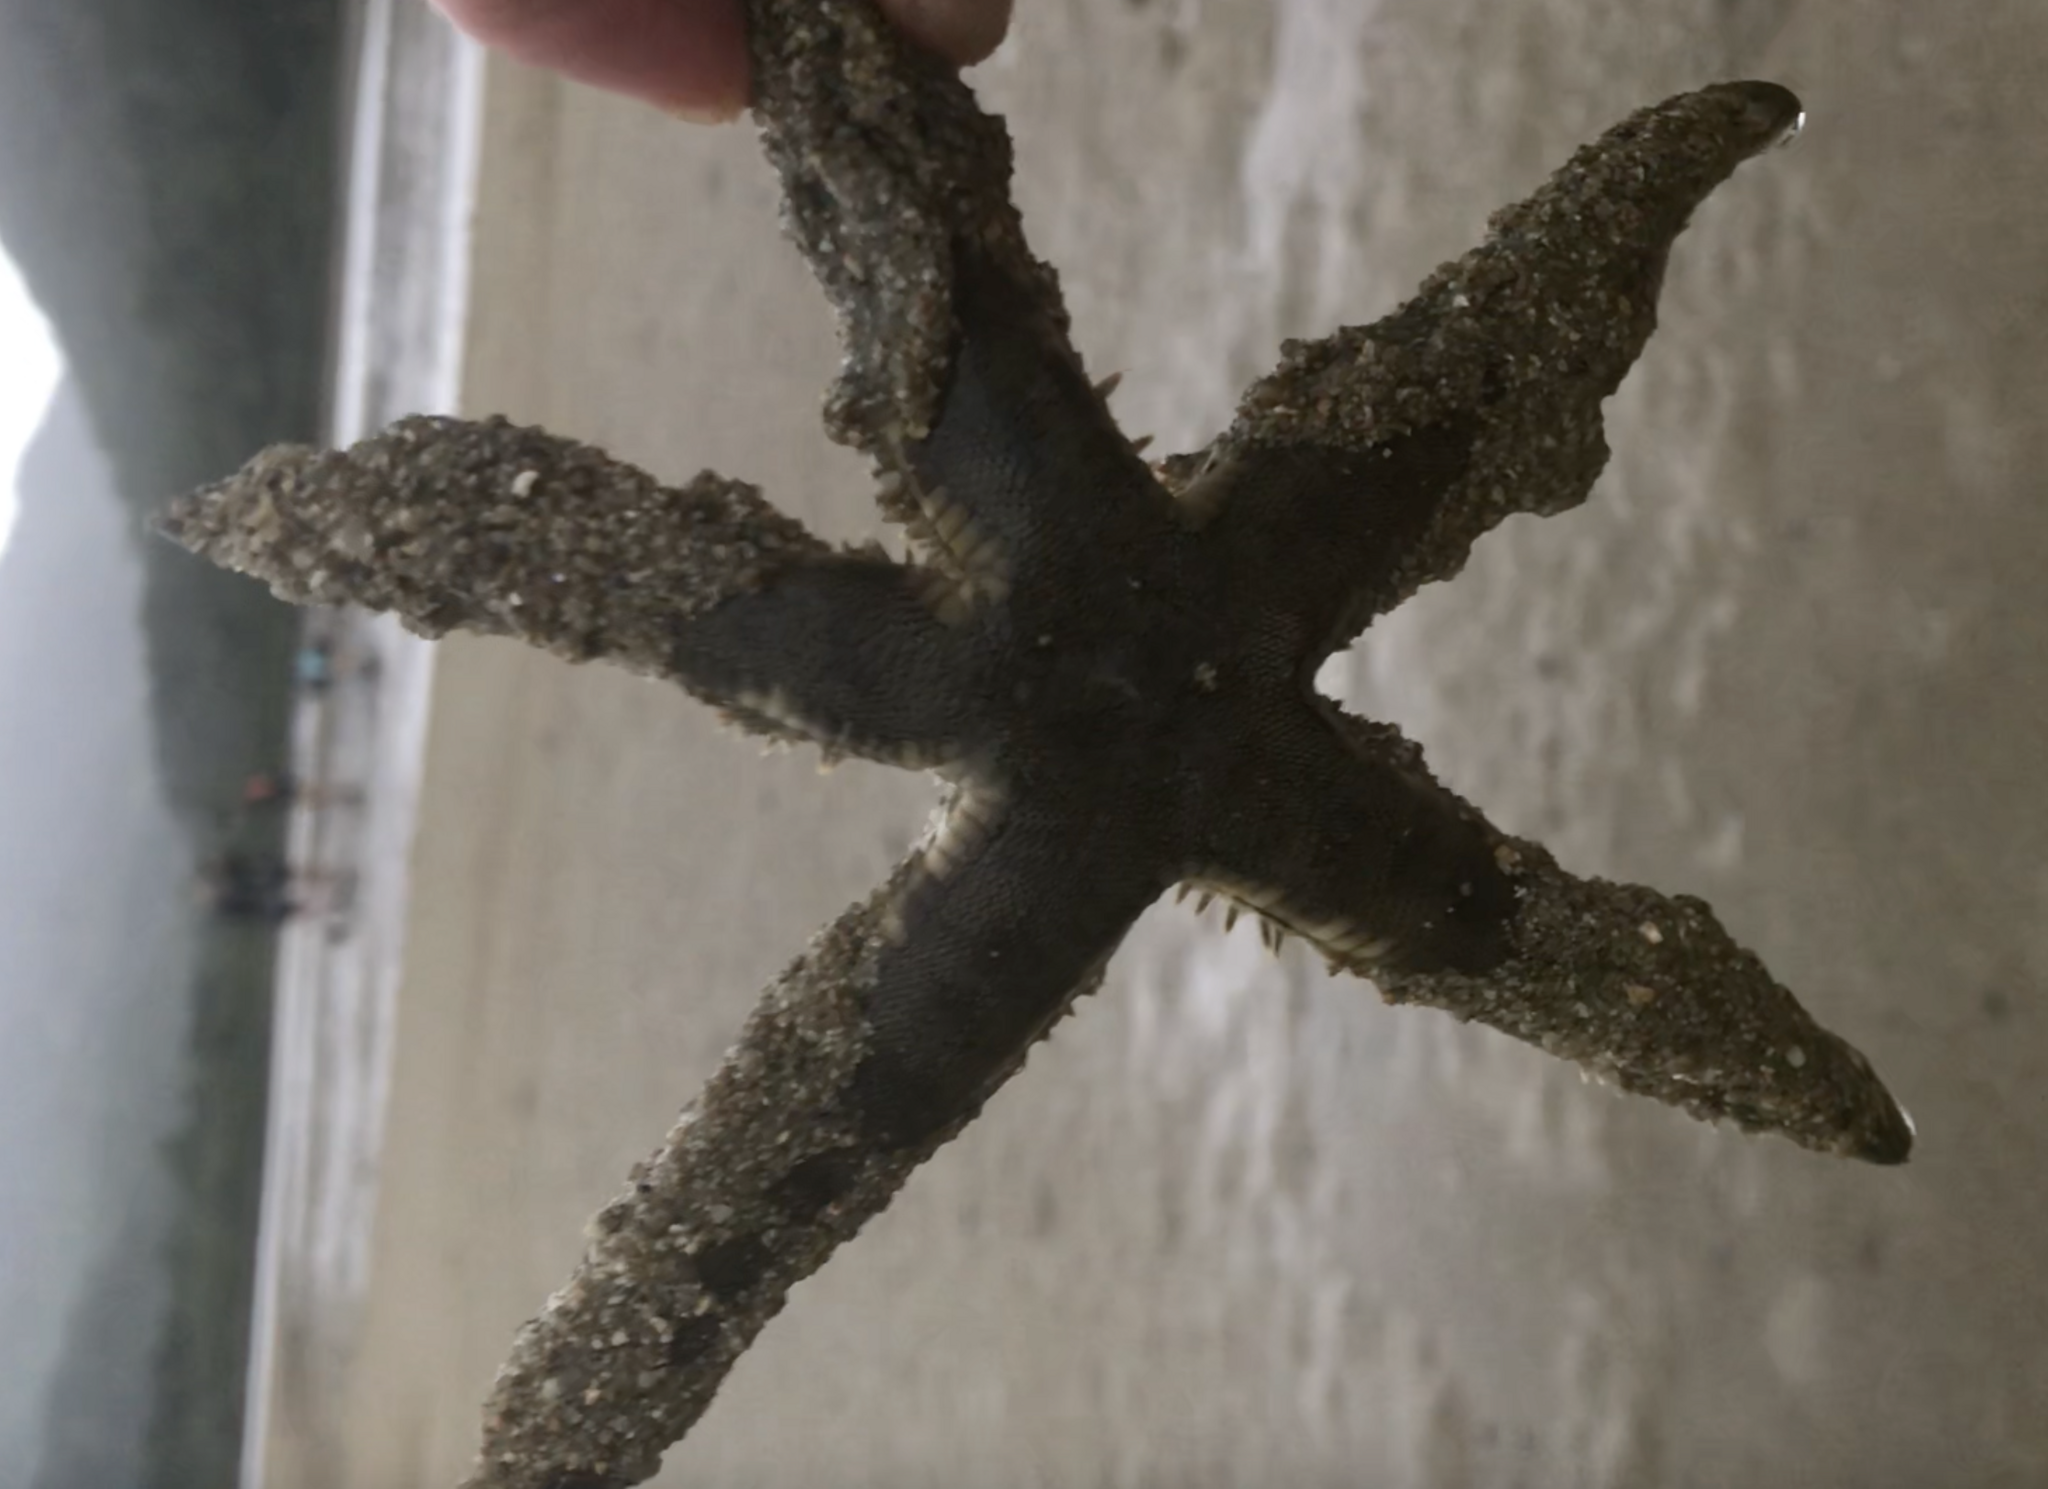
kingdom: Animalia
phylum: Echinodermata
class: Asteroidea
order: Valvatida
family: Archasteridae
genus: Archaster
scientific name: Archaster typicus
